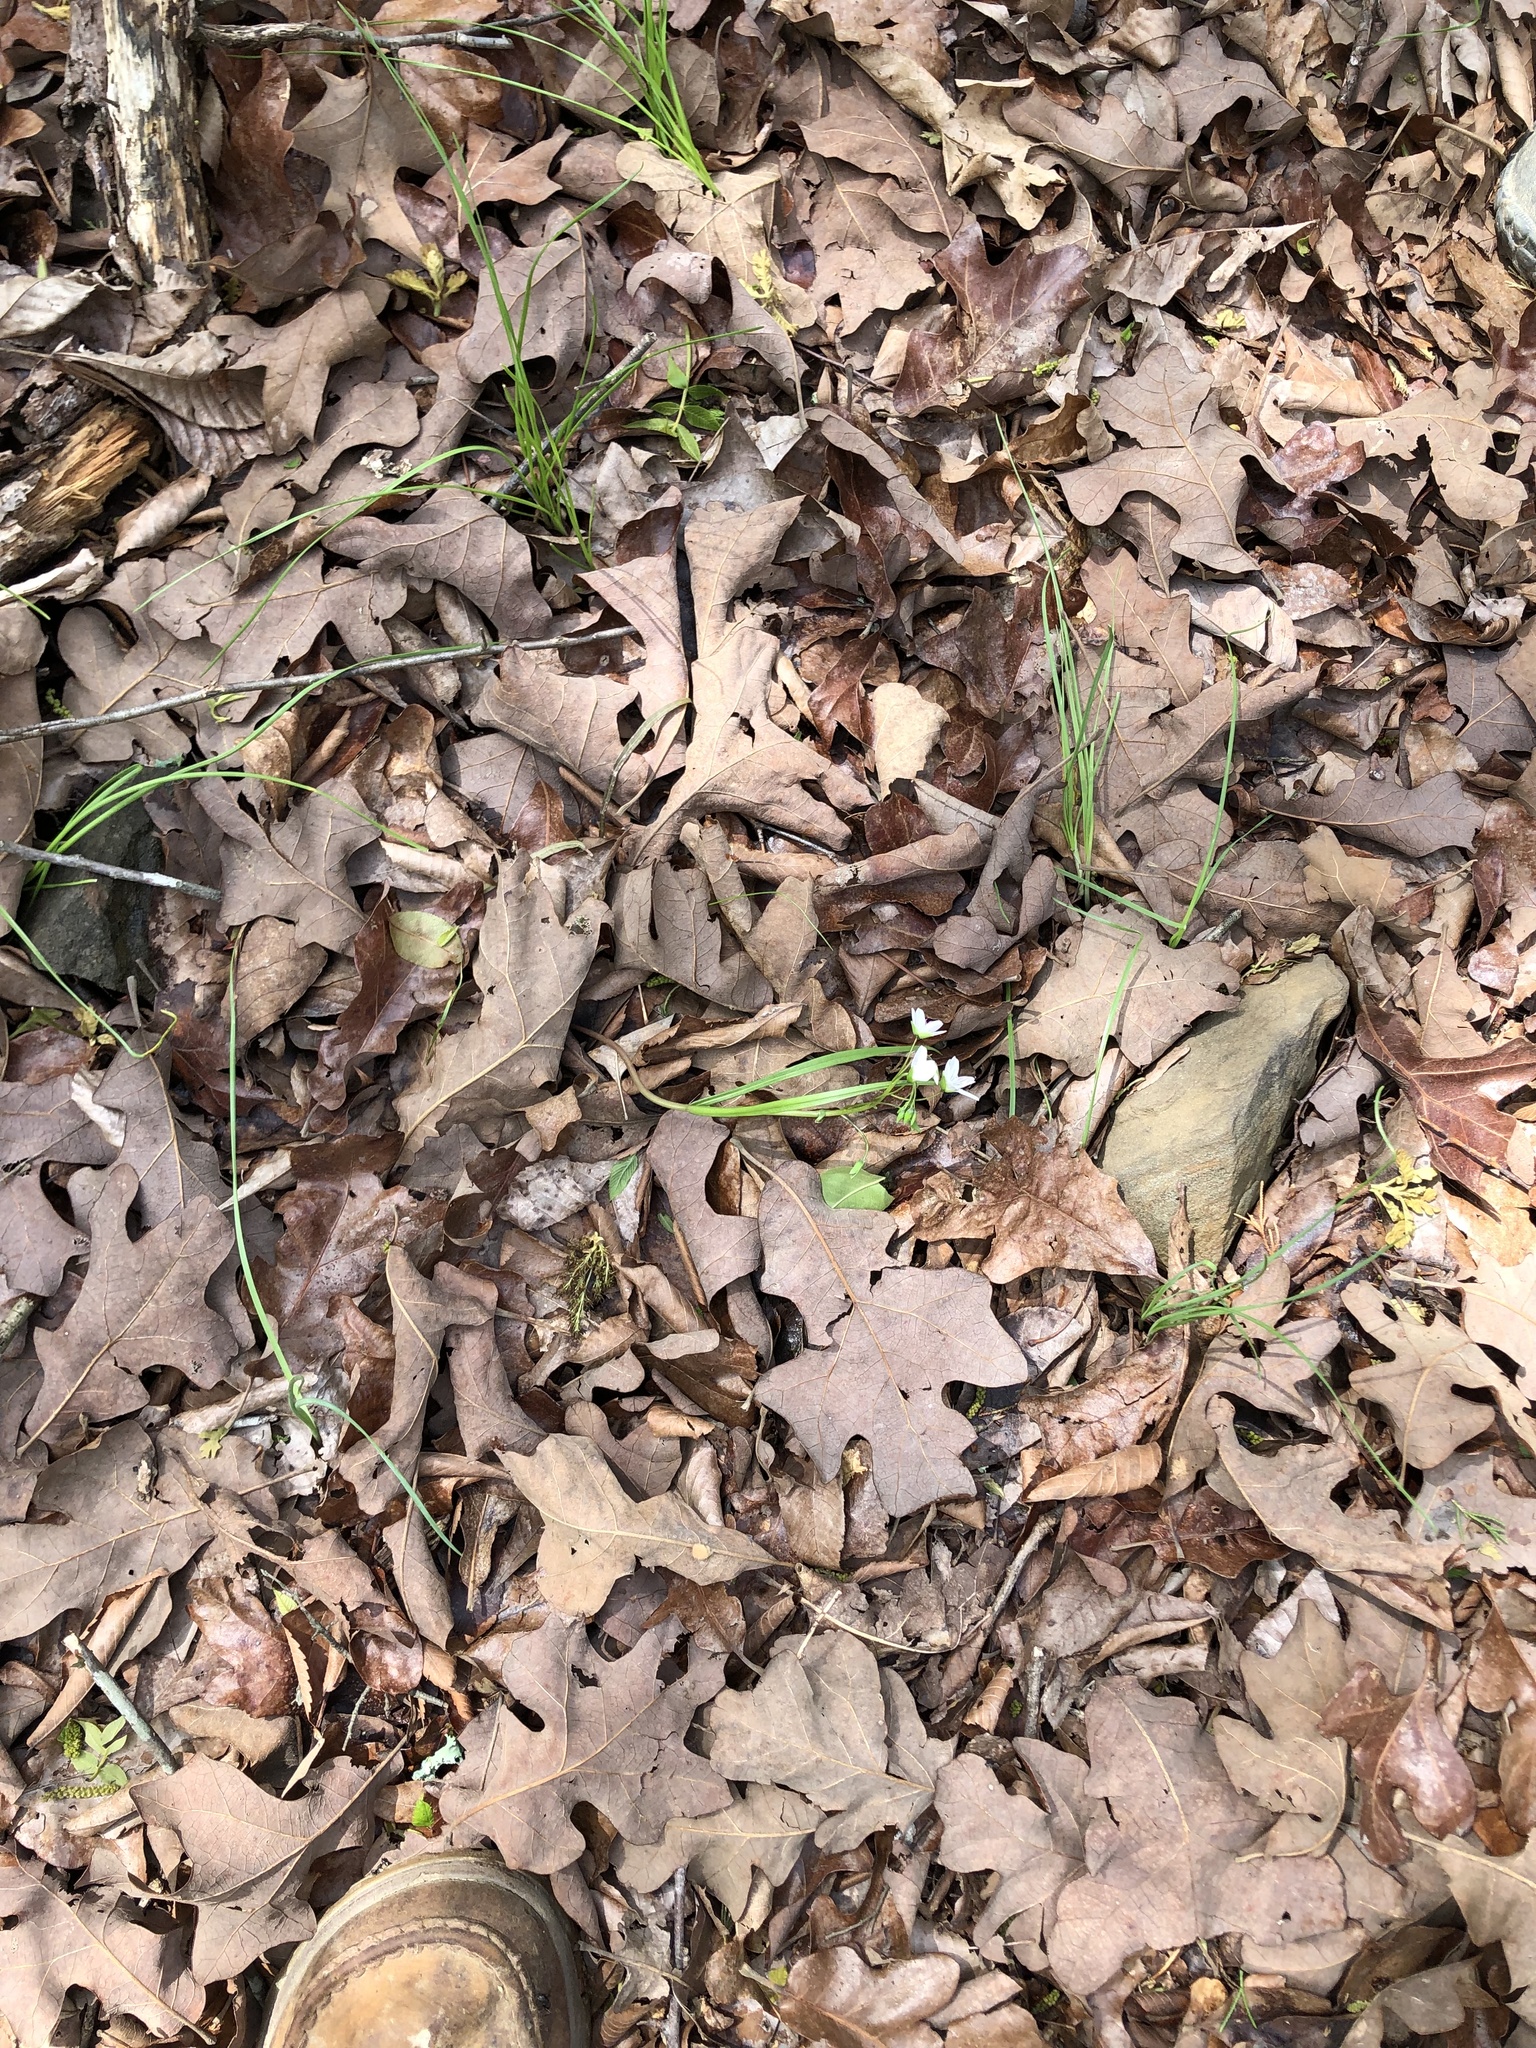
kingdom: Plantae
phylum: Tracheophyta
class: Magnoliopsida
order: Caryophyllales
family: Montiaceae
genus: Claytonia
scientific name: Claytonia virginica
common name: Virginia springbeauty
